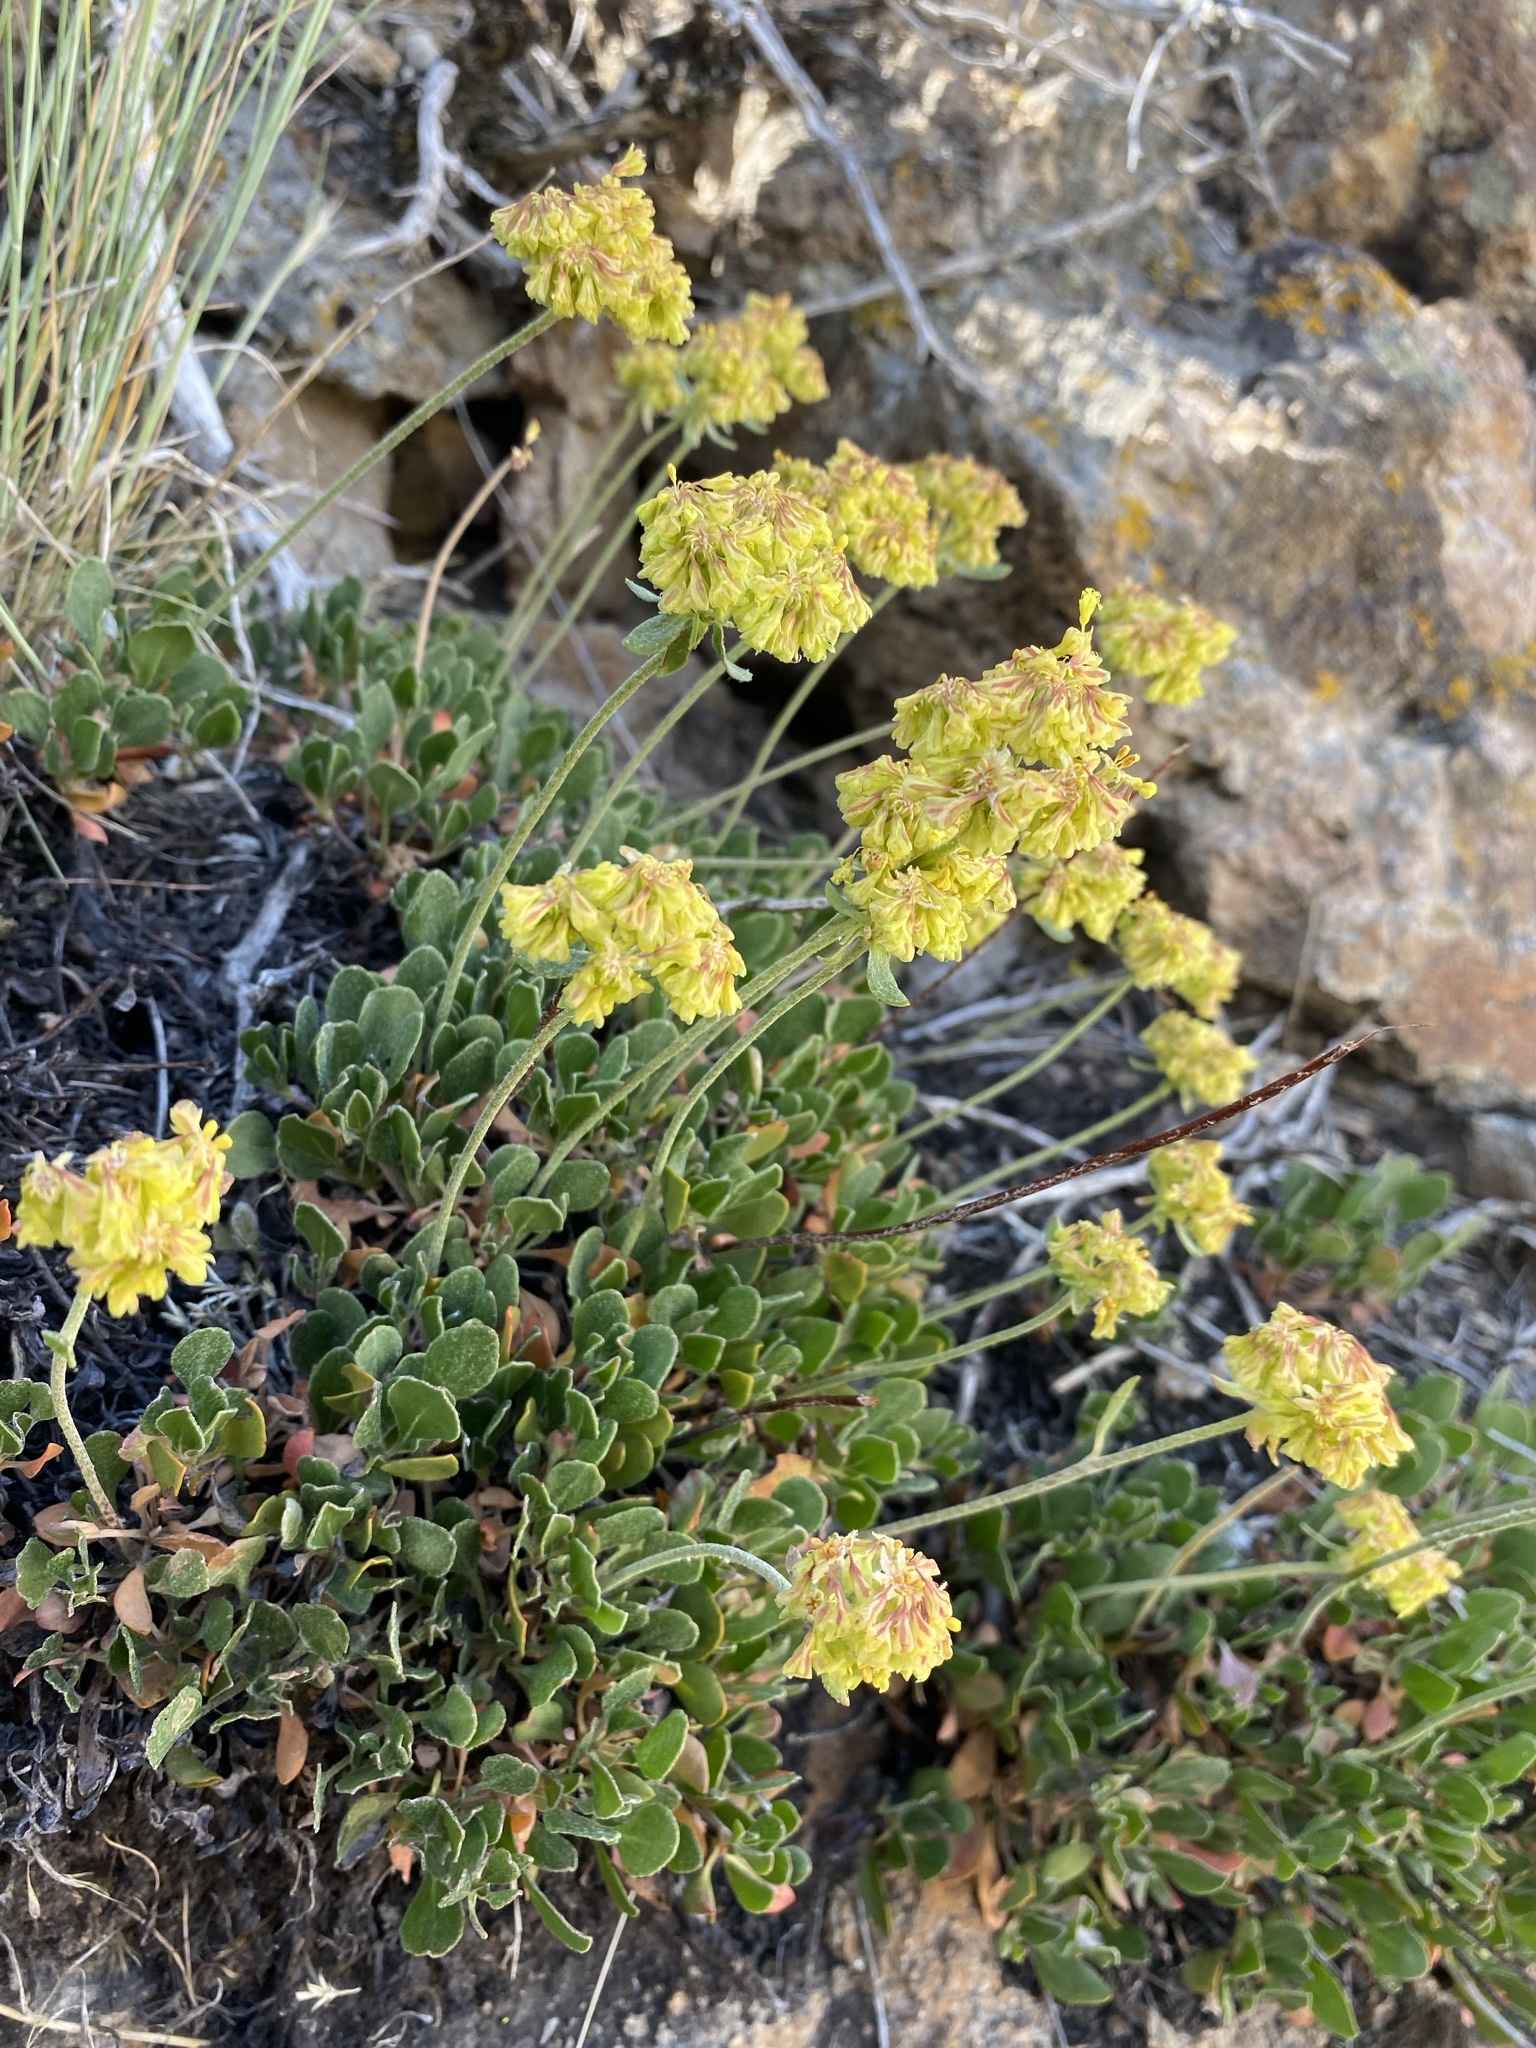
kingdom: Plantae
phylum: Tracheophyta
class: Magnoliopsida
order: Caryophyllales
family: Polygonaceae
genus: Eriogonum
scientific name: Eriogonum umbellatum
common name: Sulfur-buckwheat
